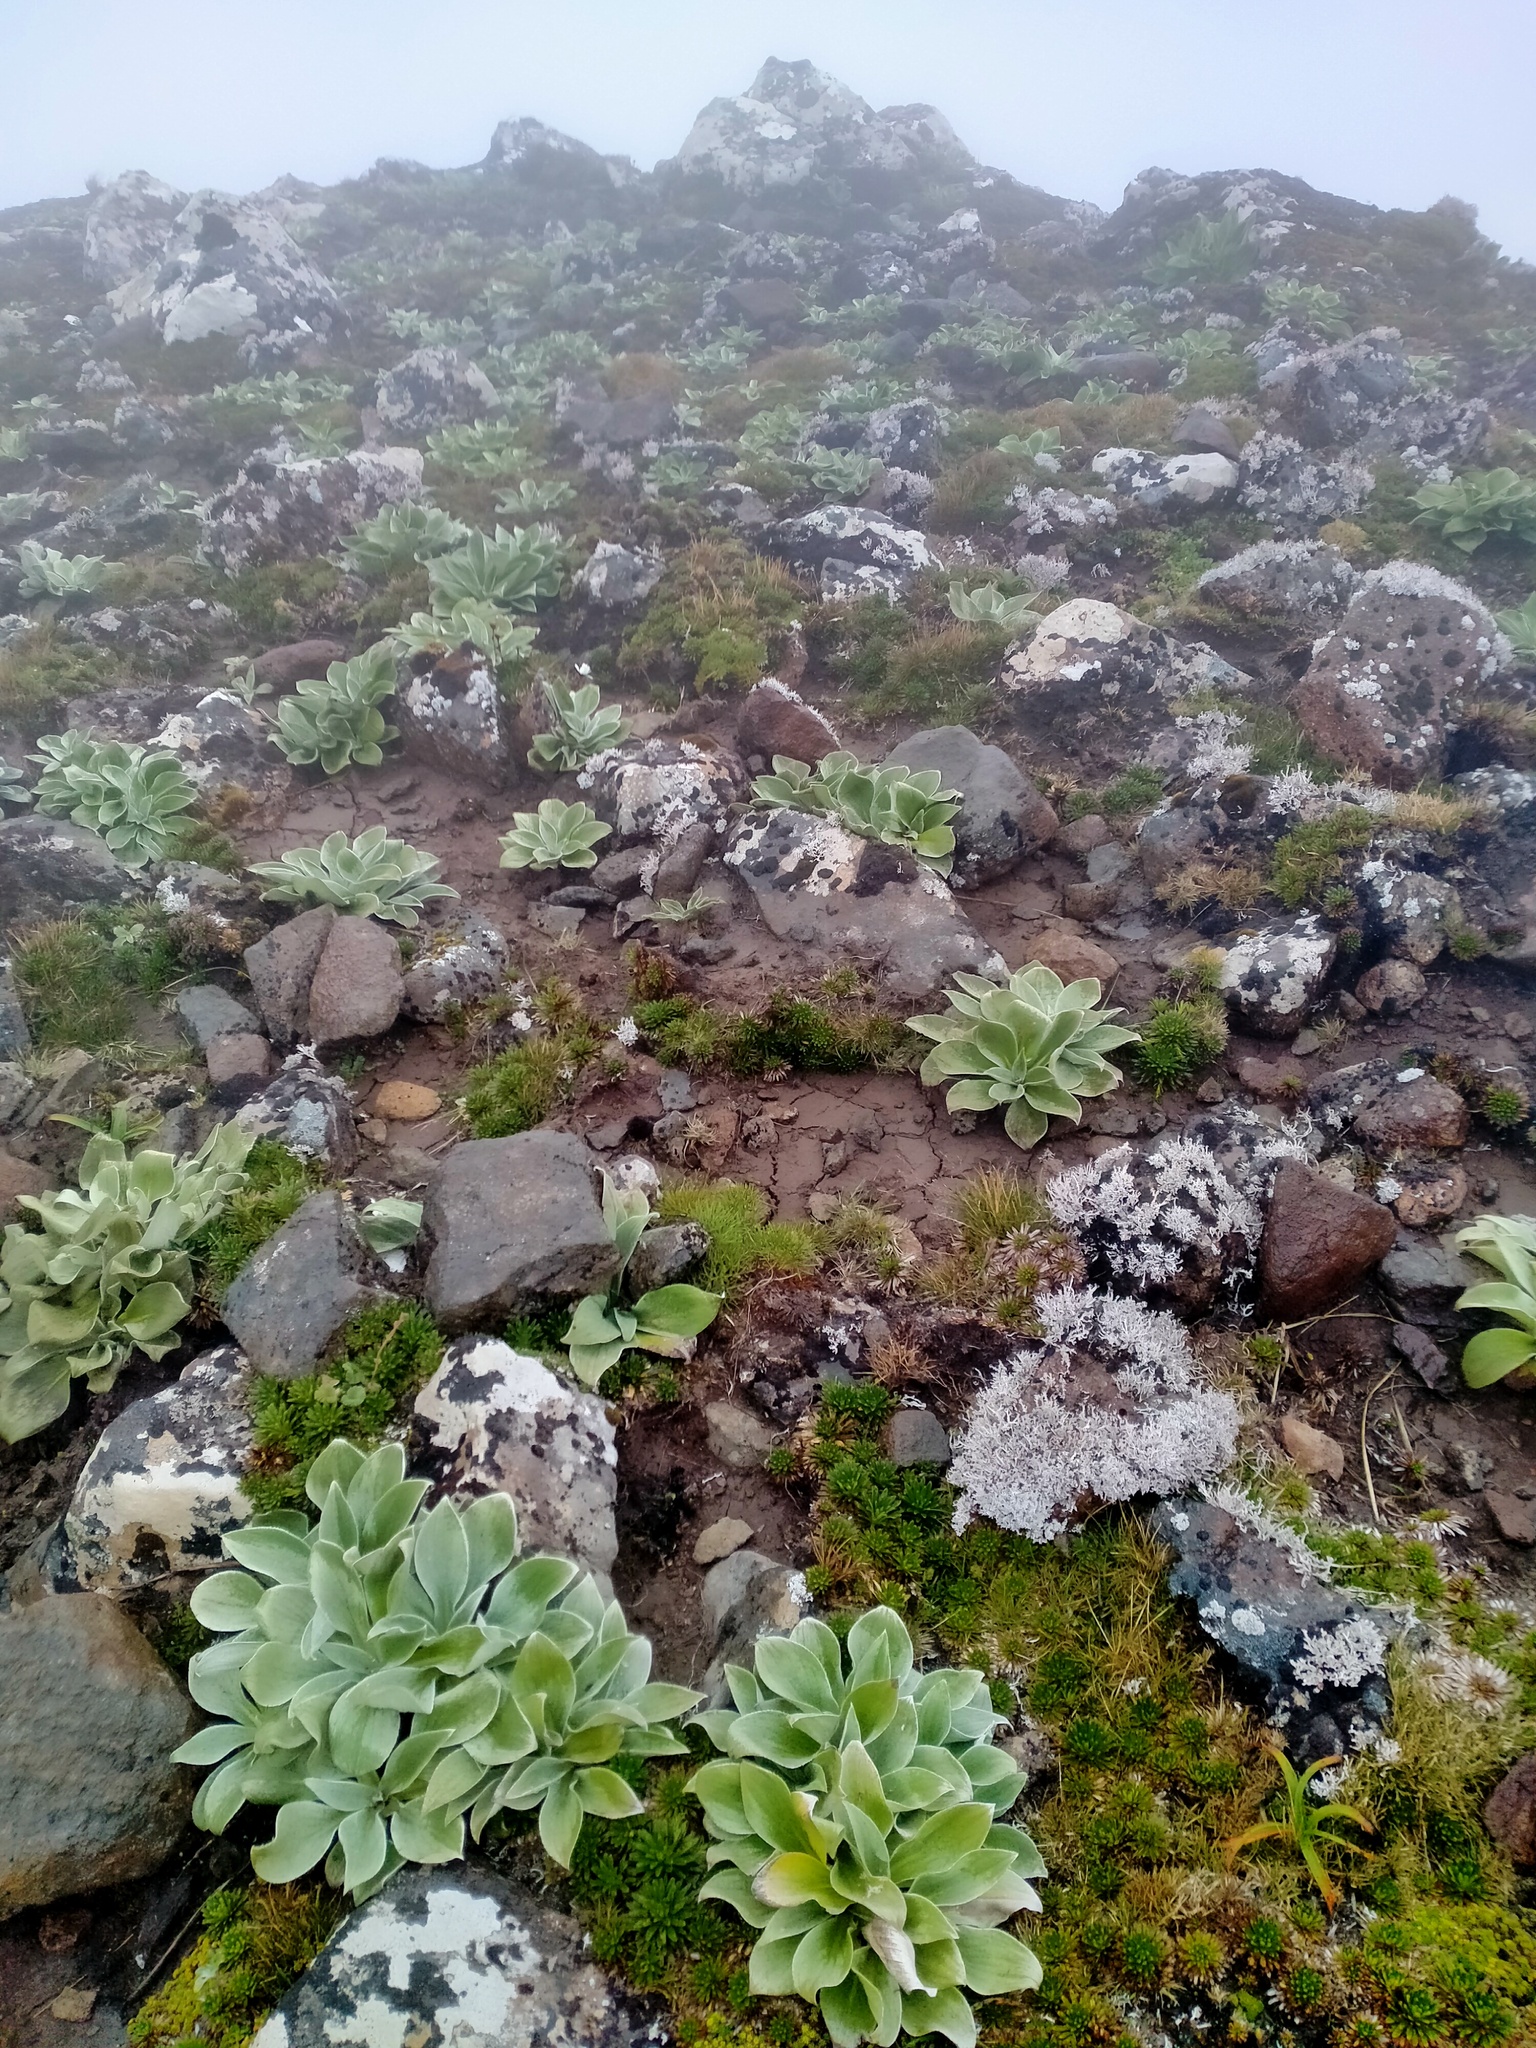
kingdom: Plantae
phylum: Tracheophyta
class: Magnoliopsida
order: Asterales
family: Asteraceae
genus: Pleurophyllum
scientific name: Pleurophyllum hookeri
